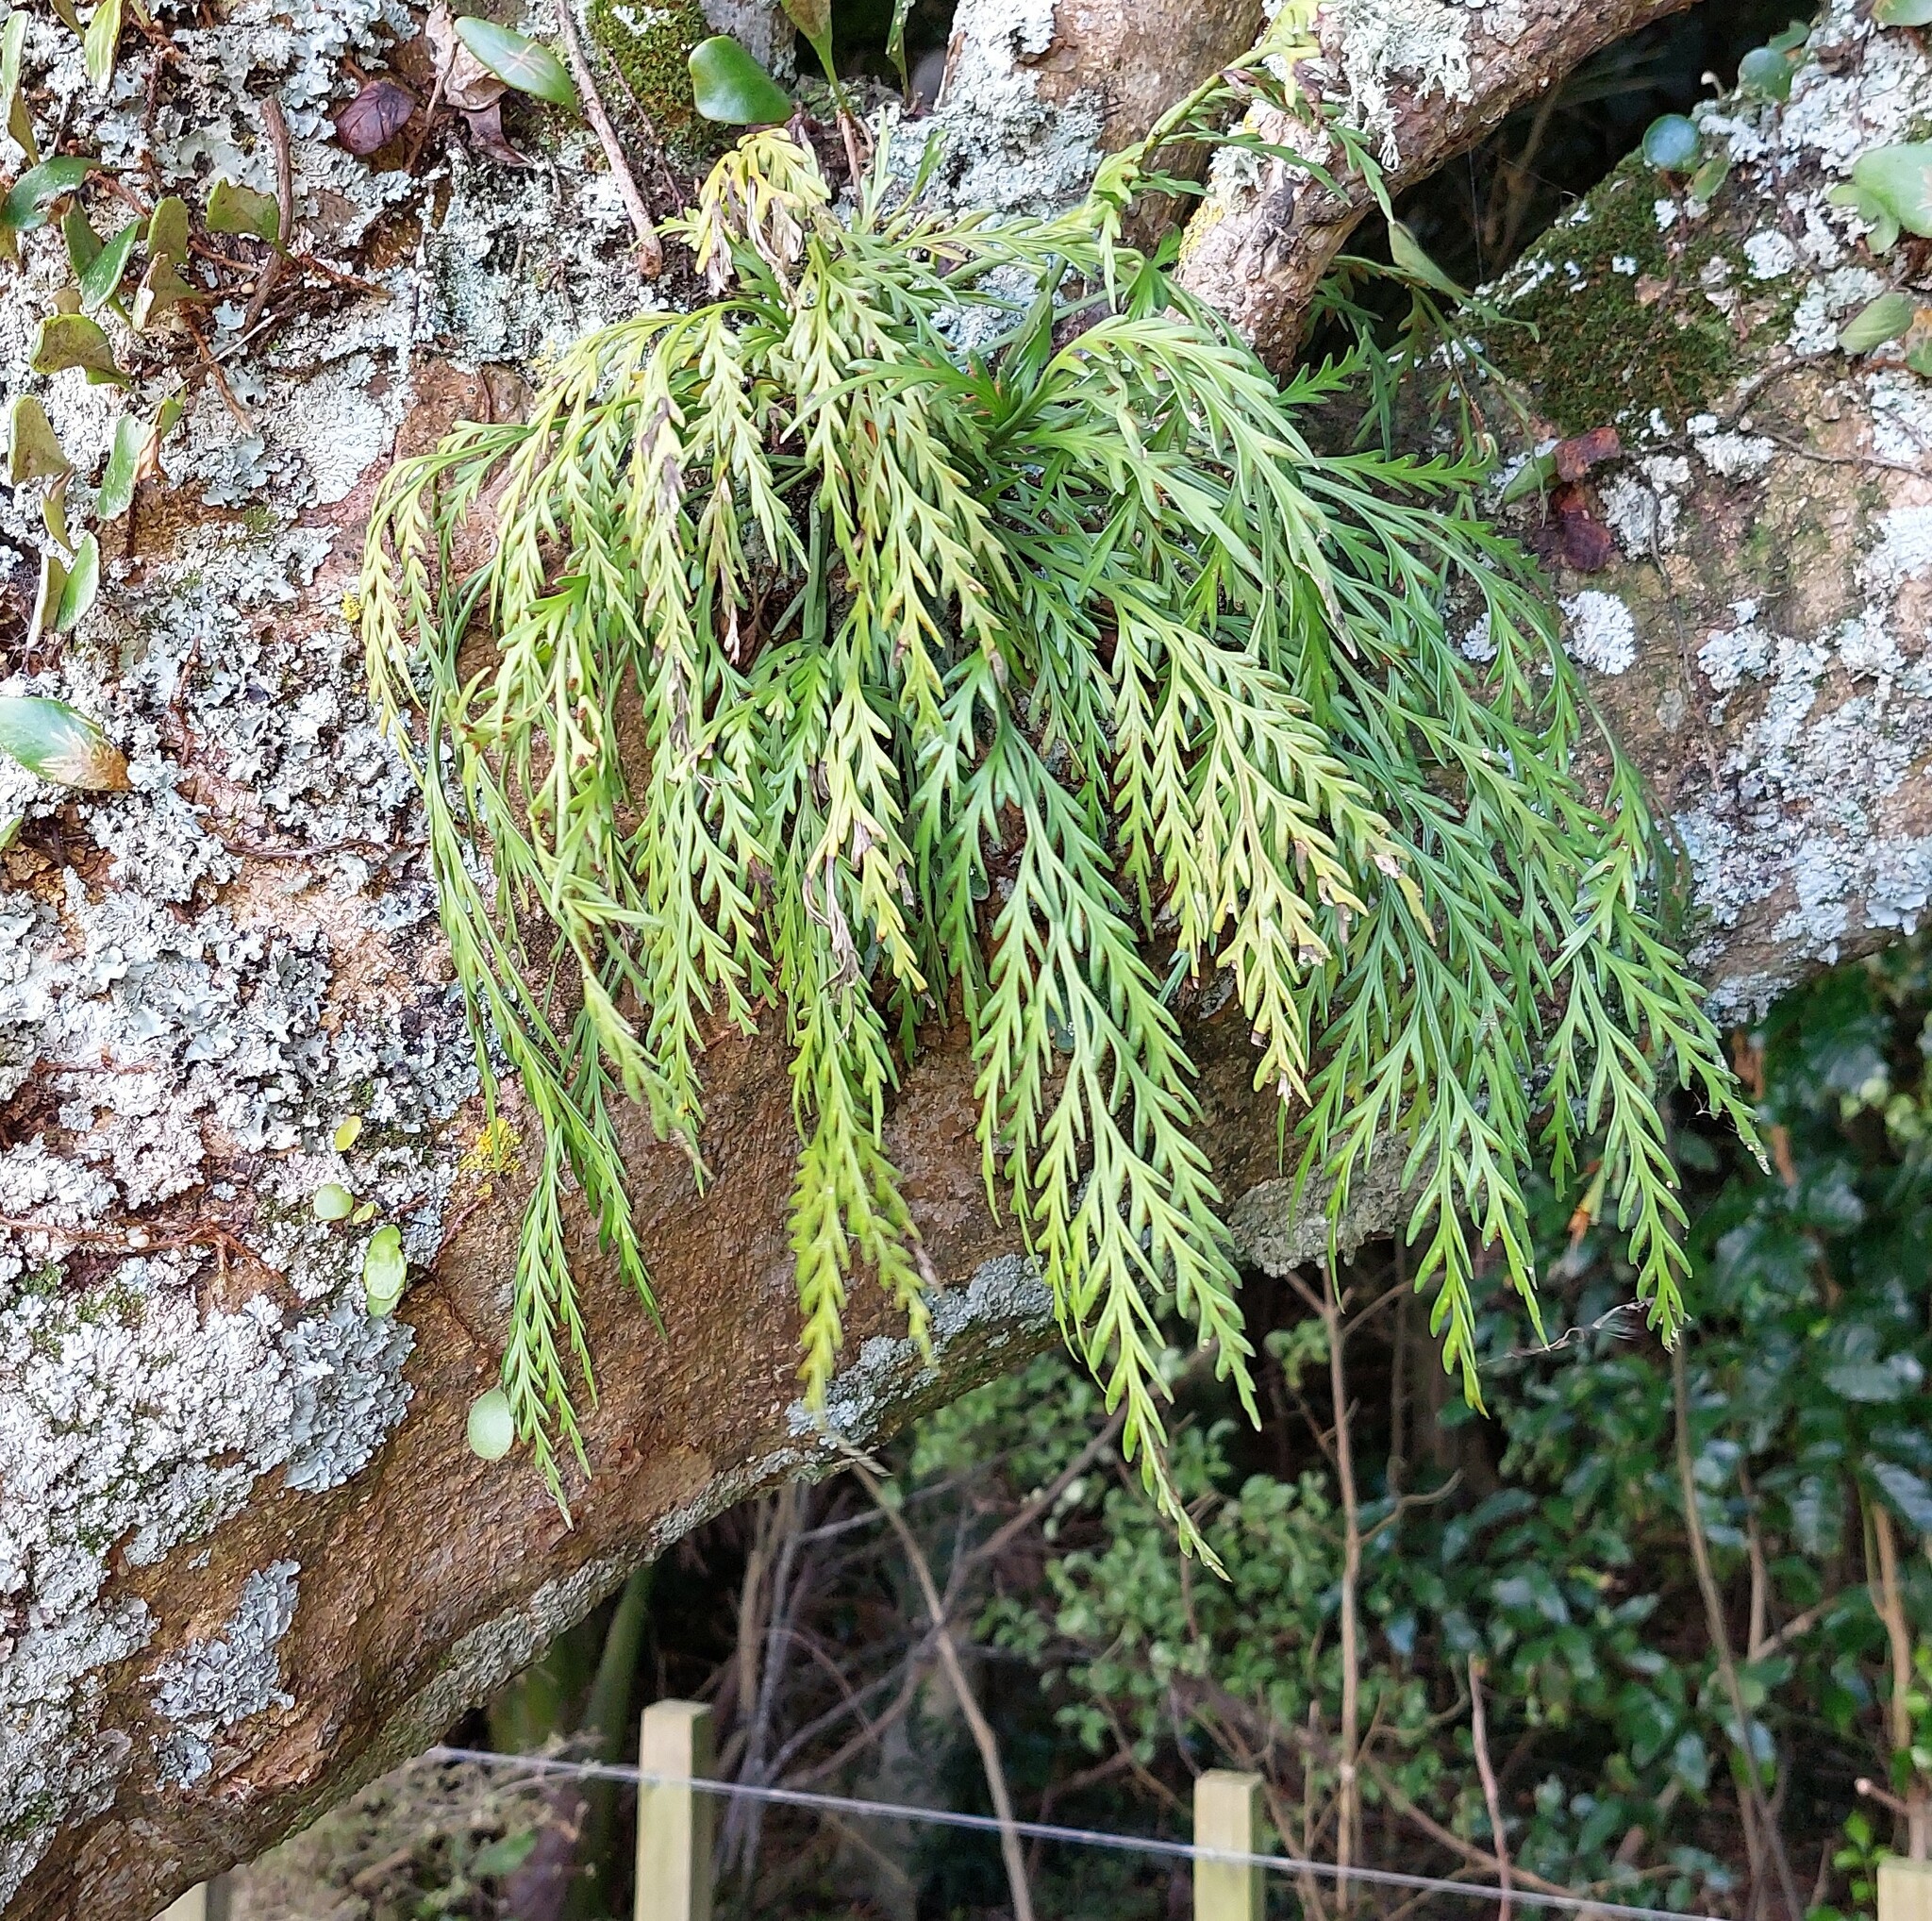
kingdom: Plantae
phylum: Tracheophyta
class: Polypodiopsida
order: Polypodiales
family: Aspleniaceae
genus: Asplenium
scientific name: Asplenium flaccidum
